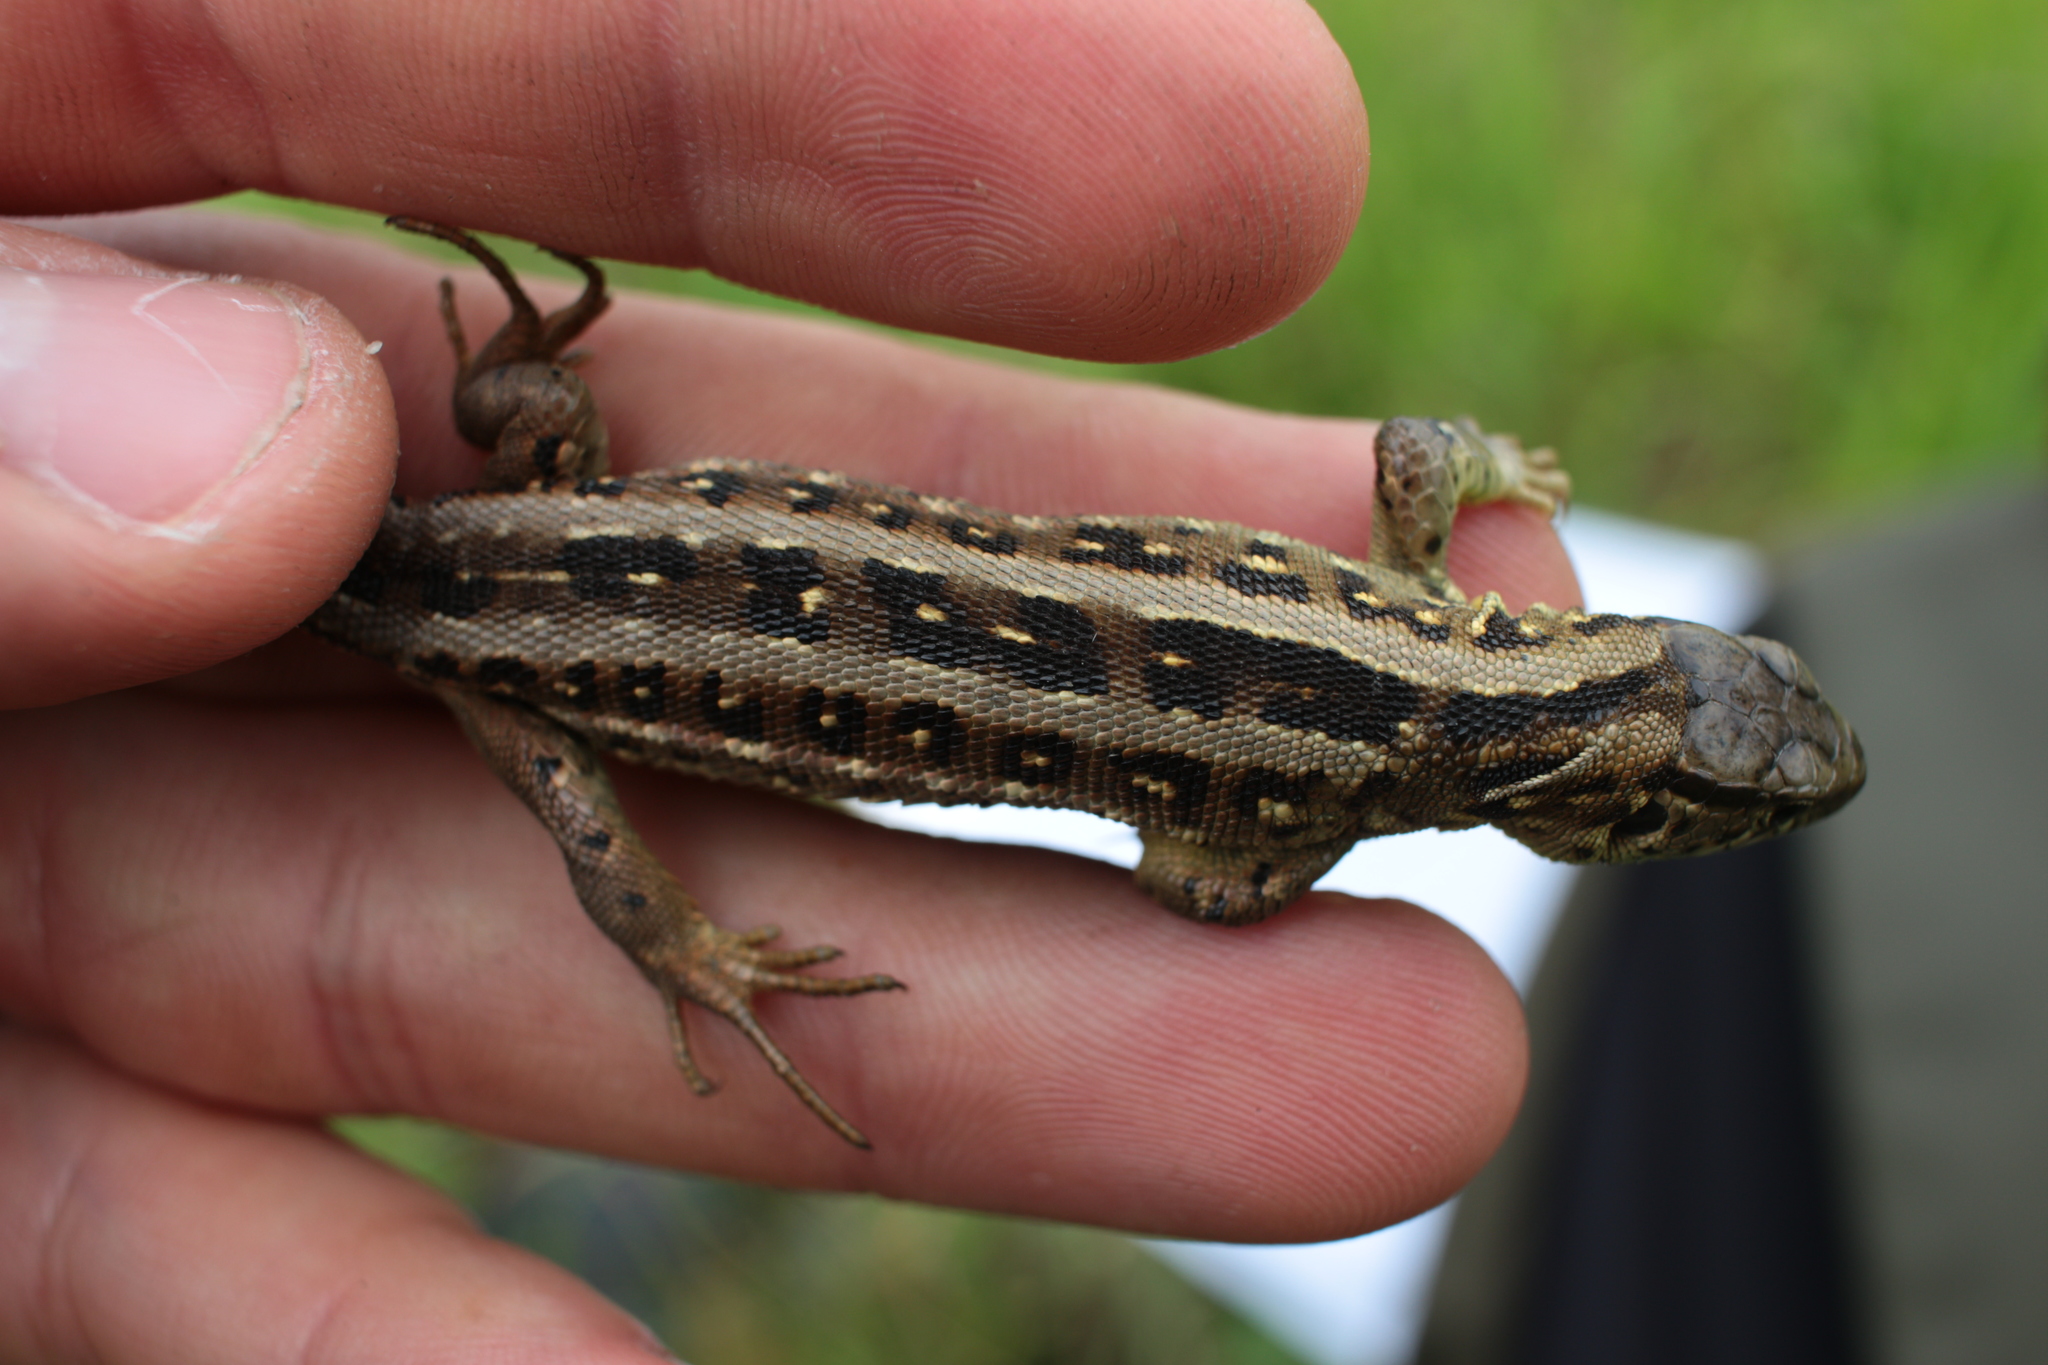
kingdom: Animalia
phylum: Chordata
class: Squamata
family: Lacertidae
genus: Lacerta
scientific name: Lacerta agilis
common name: Sand lizard
